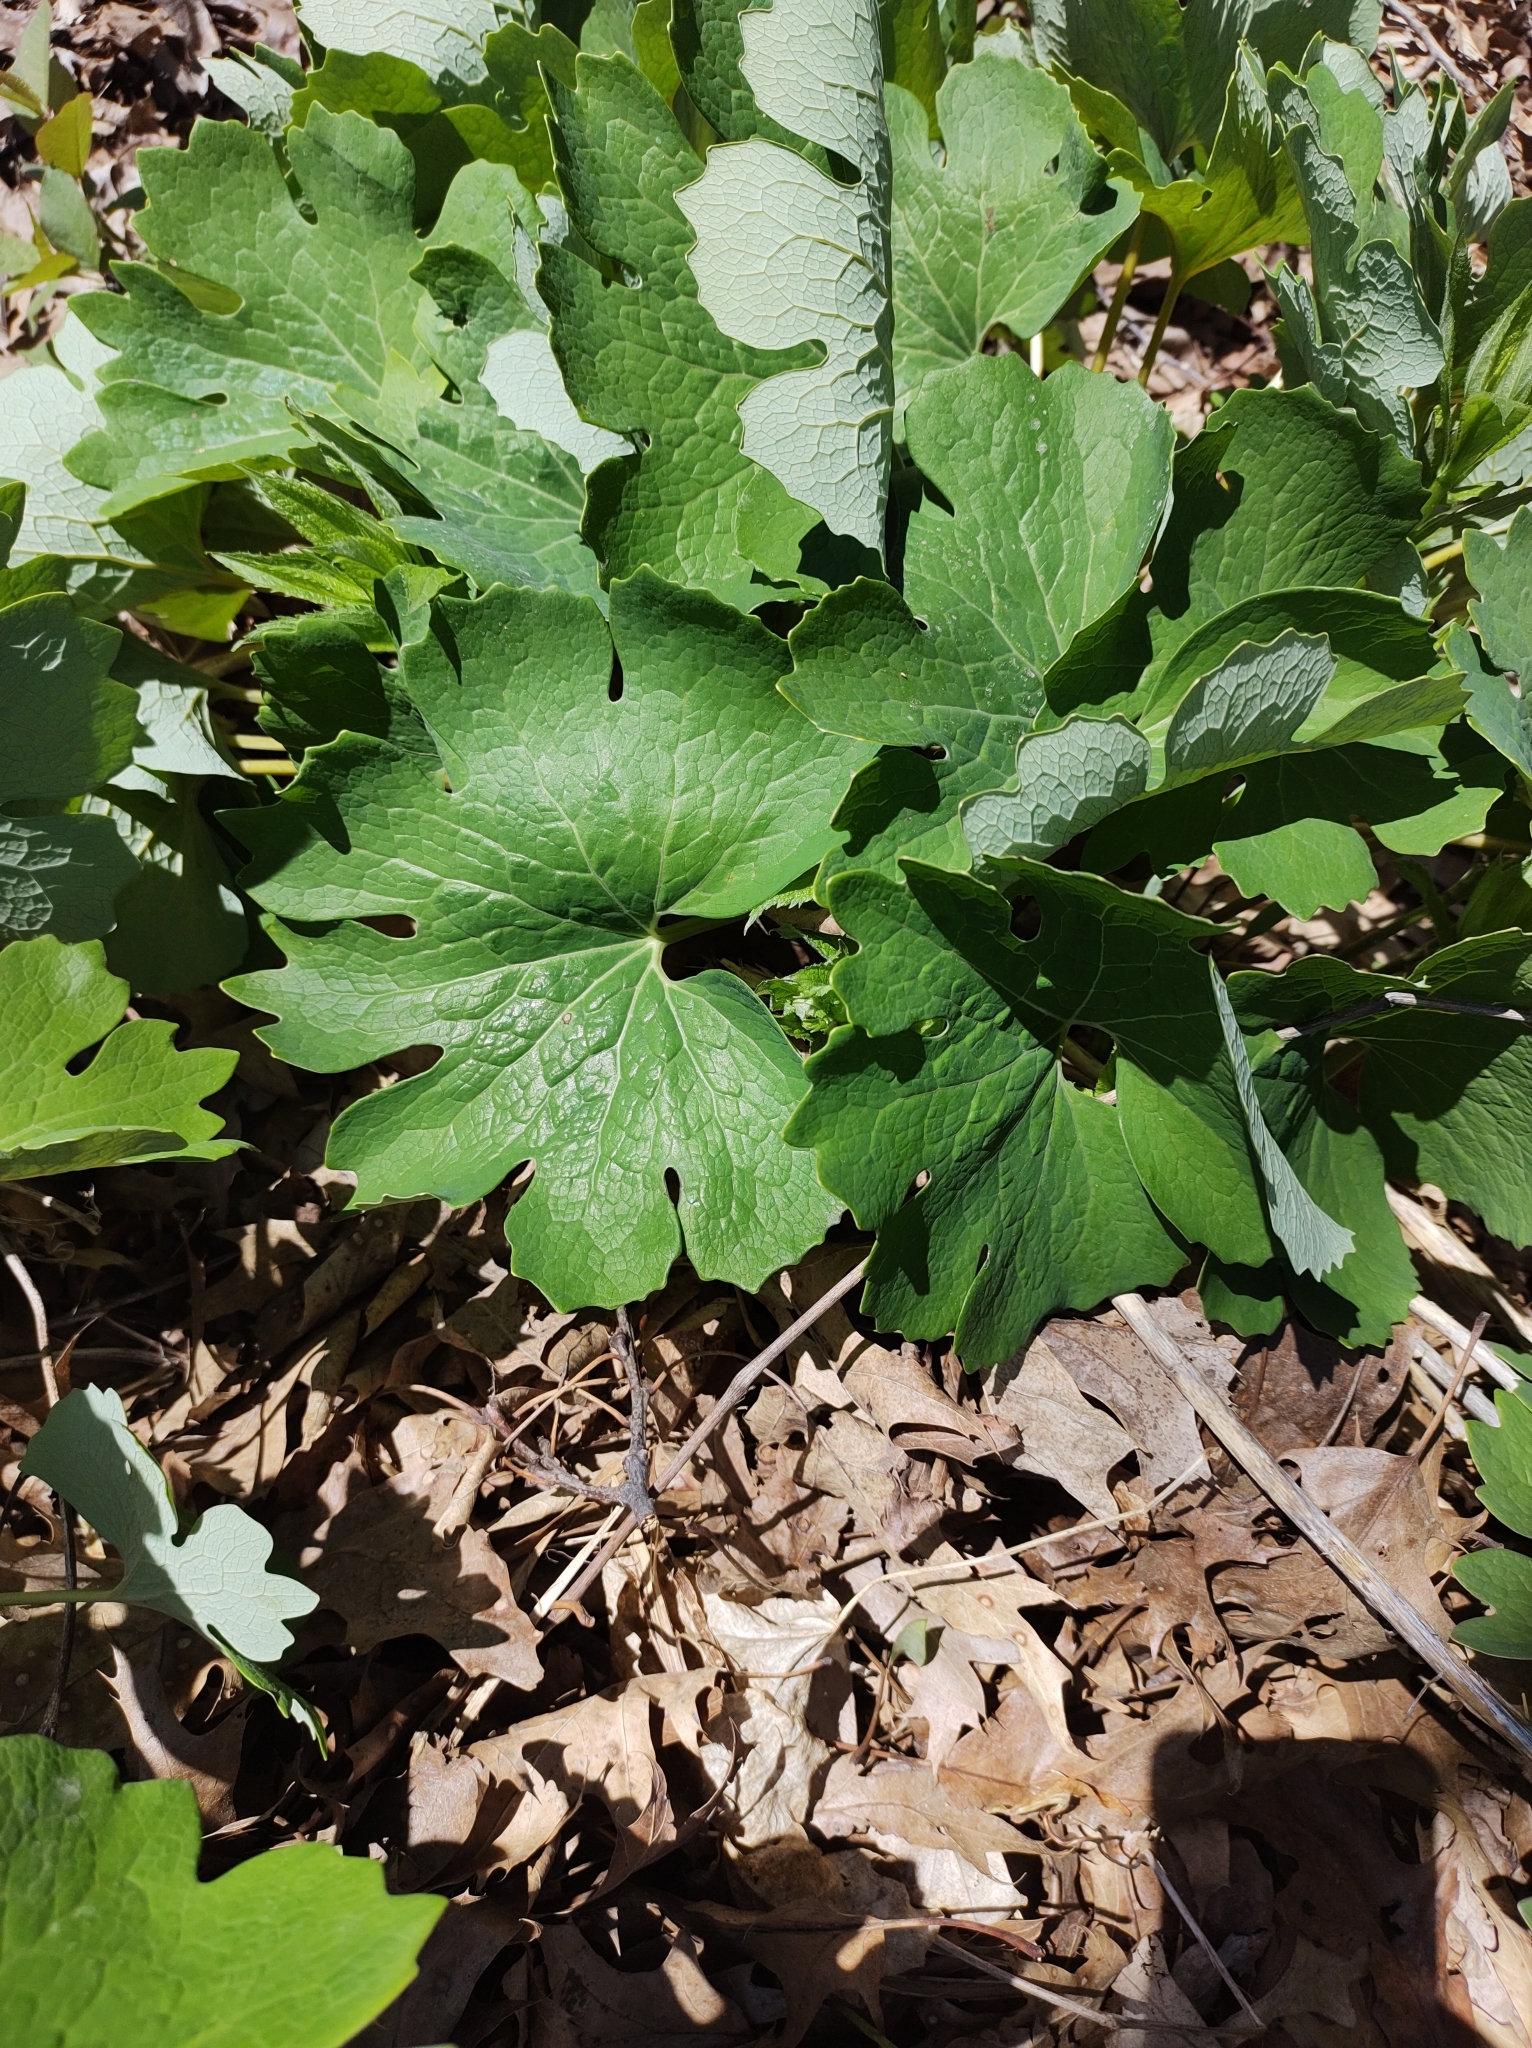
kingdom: Plantae
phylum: Tracheophyta
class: Magnoliopsida
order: Ranunculales
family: Papaveraceae
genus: Sanguinaria
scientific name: Sanguinaria canadensis
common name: Bloodroot
